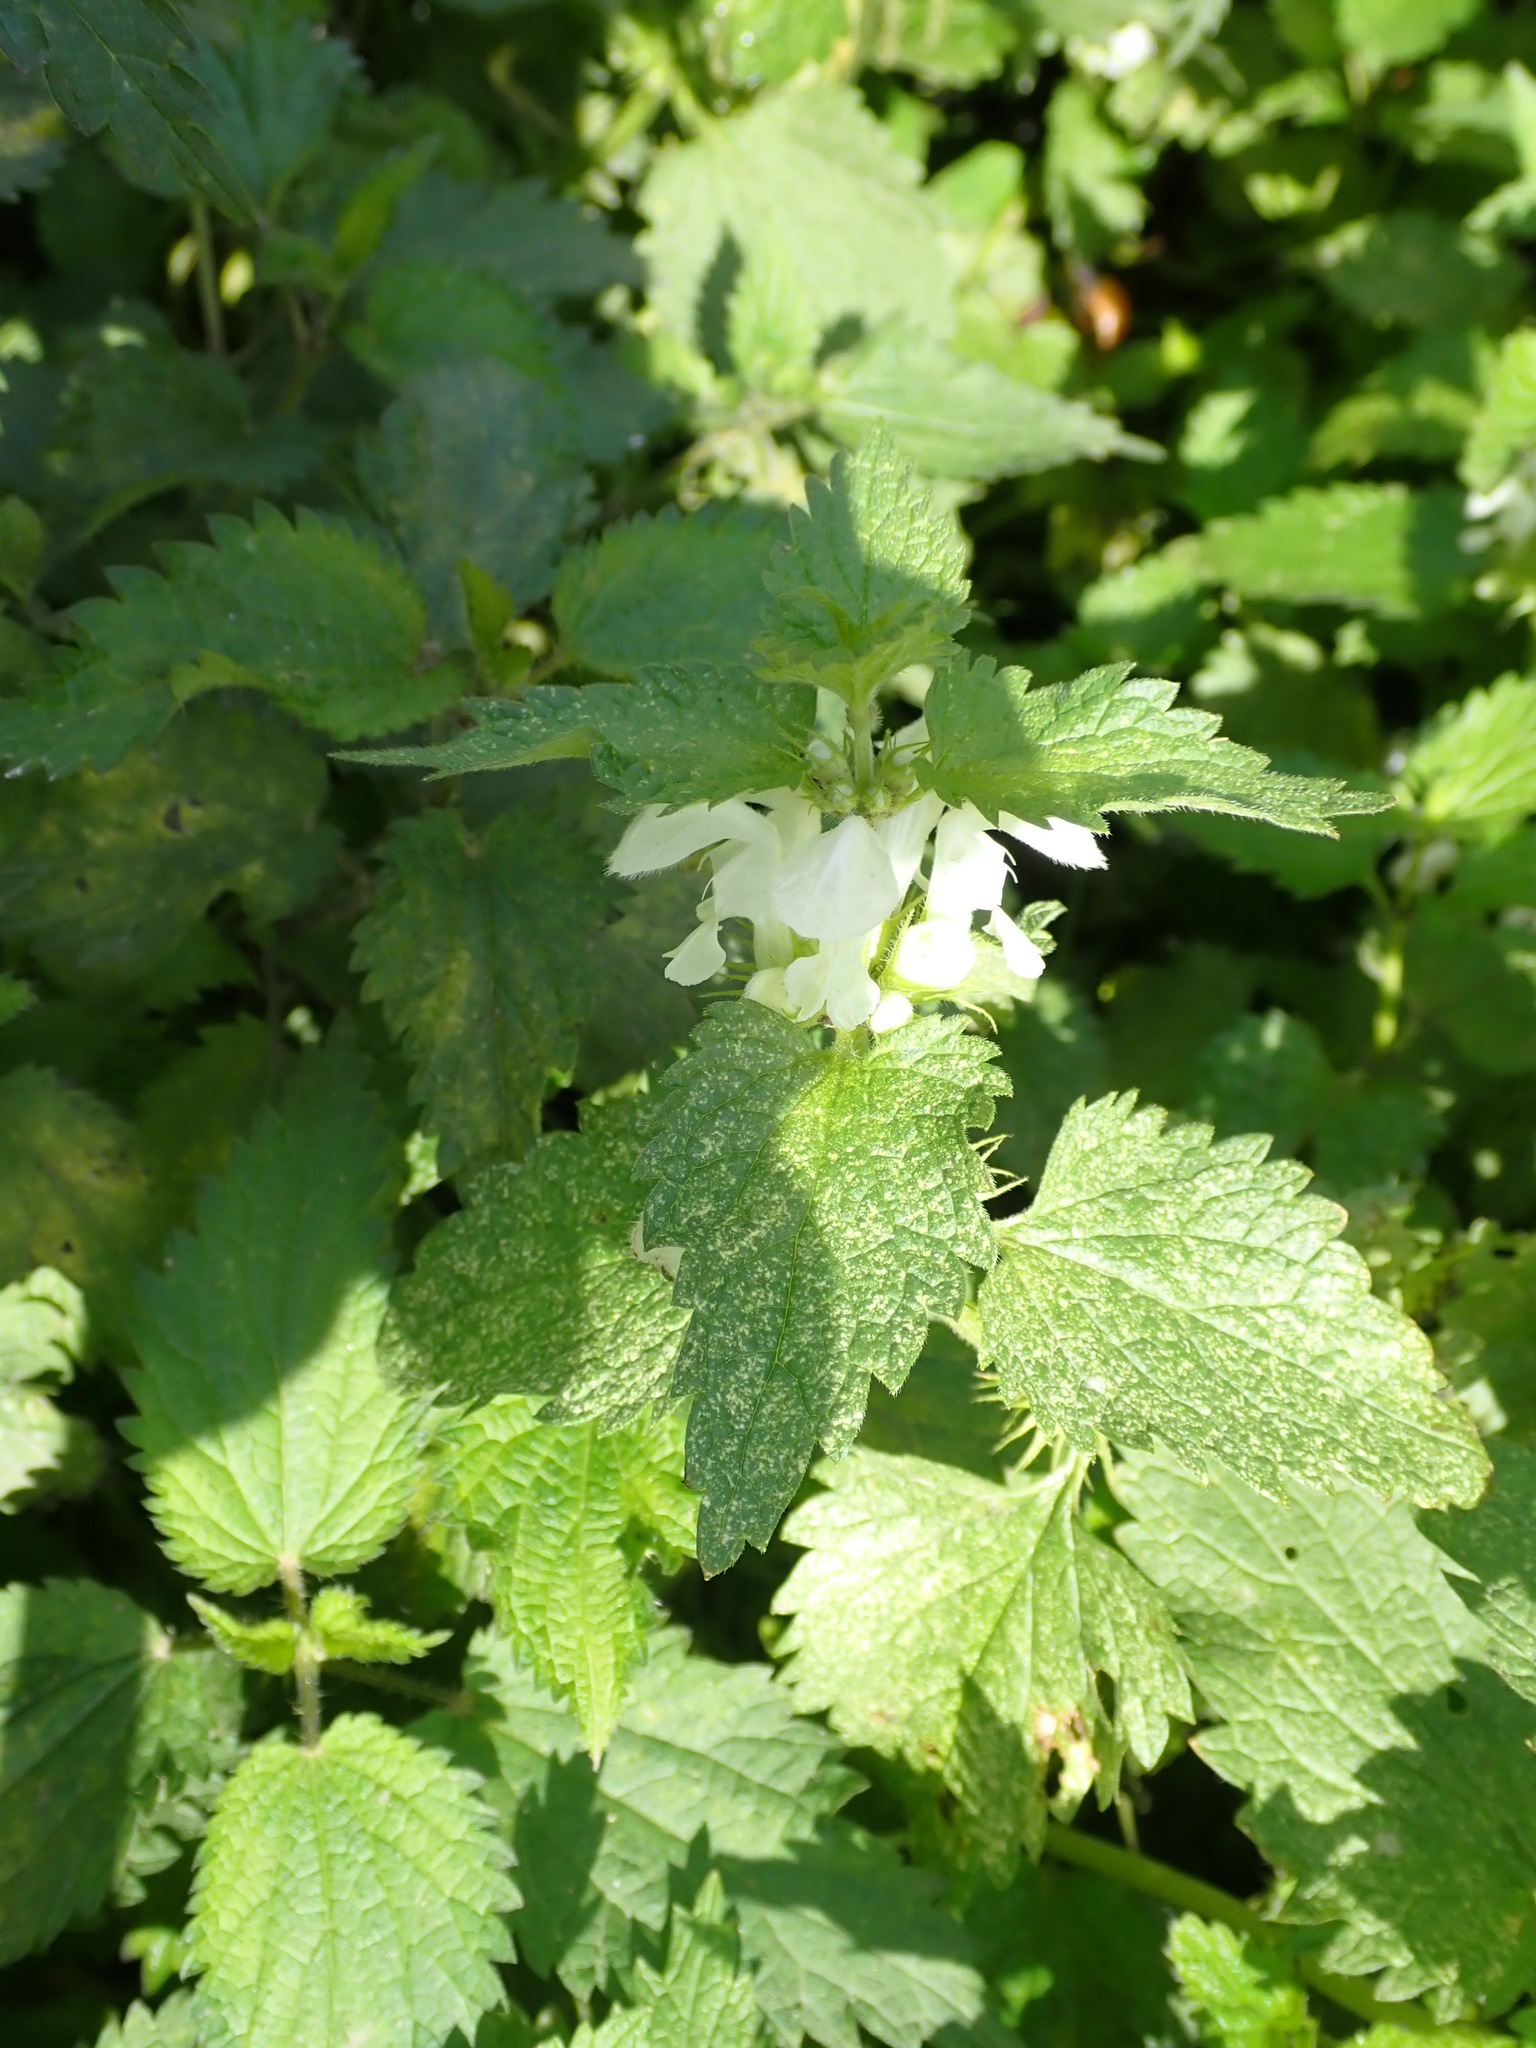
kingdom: Plantae
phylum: Tracheophyta
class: Magnoliopsida
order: Lamiales
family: Lamiaceae
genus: Lamium
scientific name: Lamium album
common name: White dead-nettle
